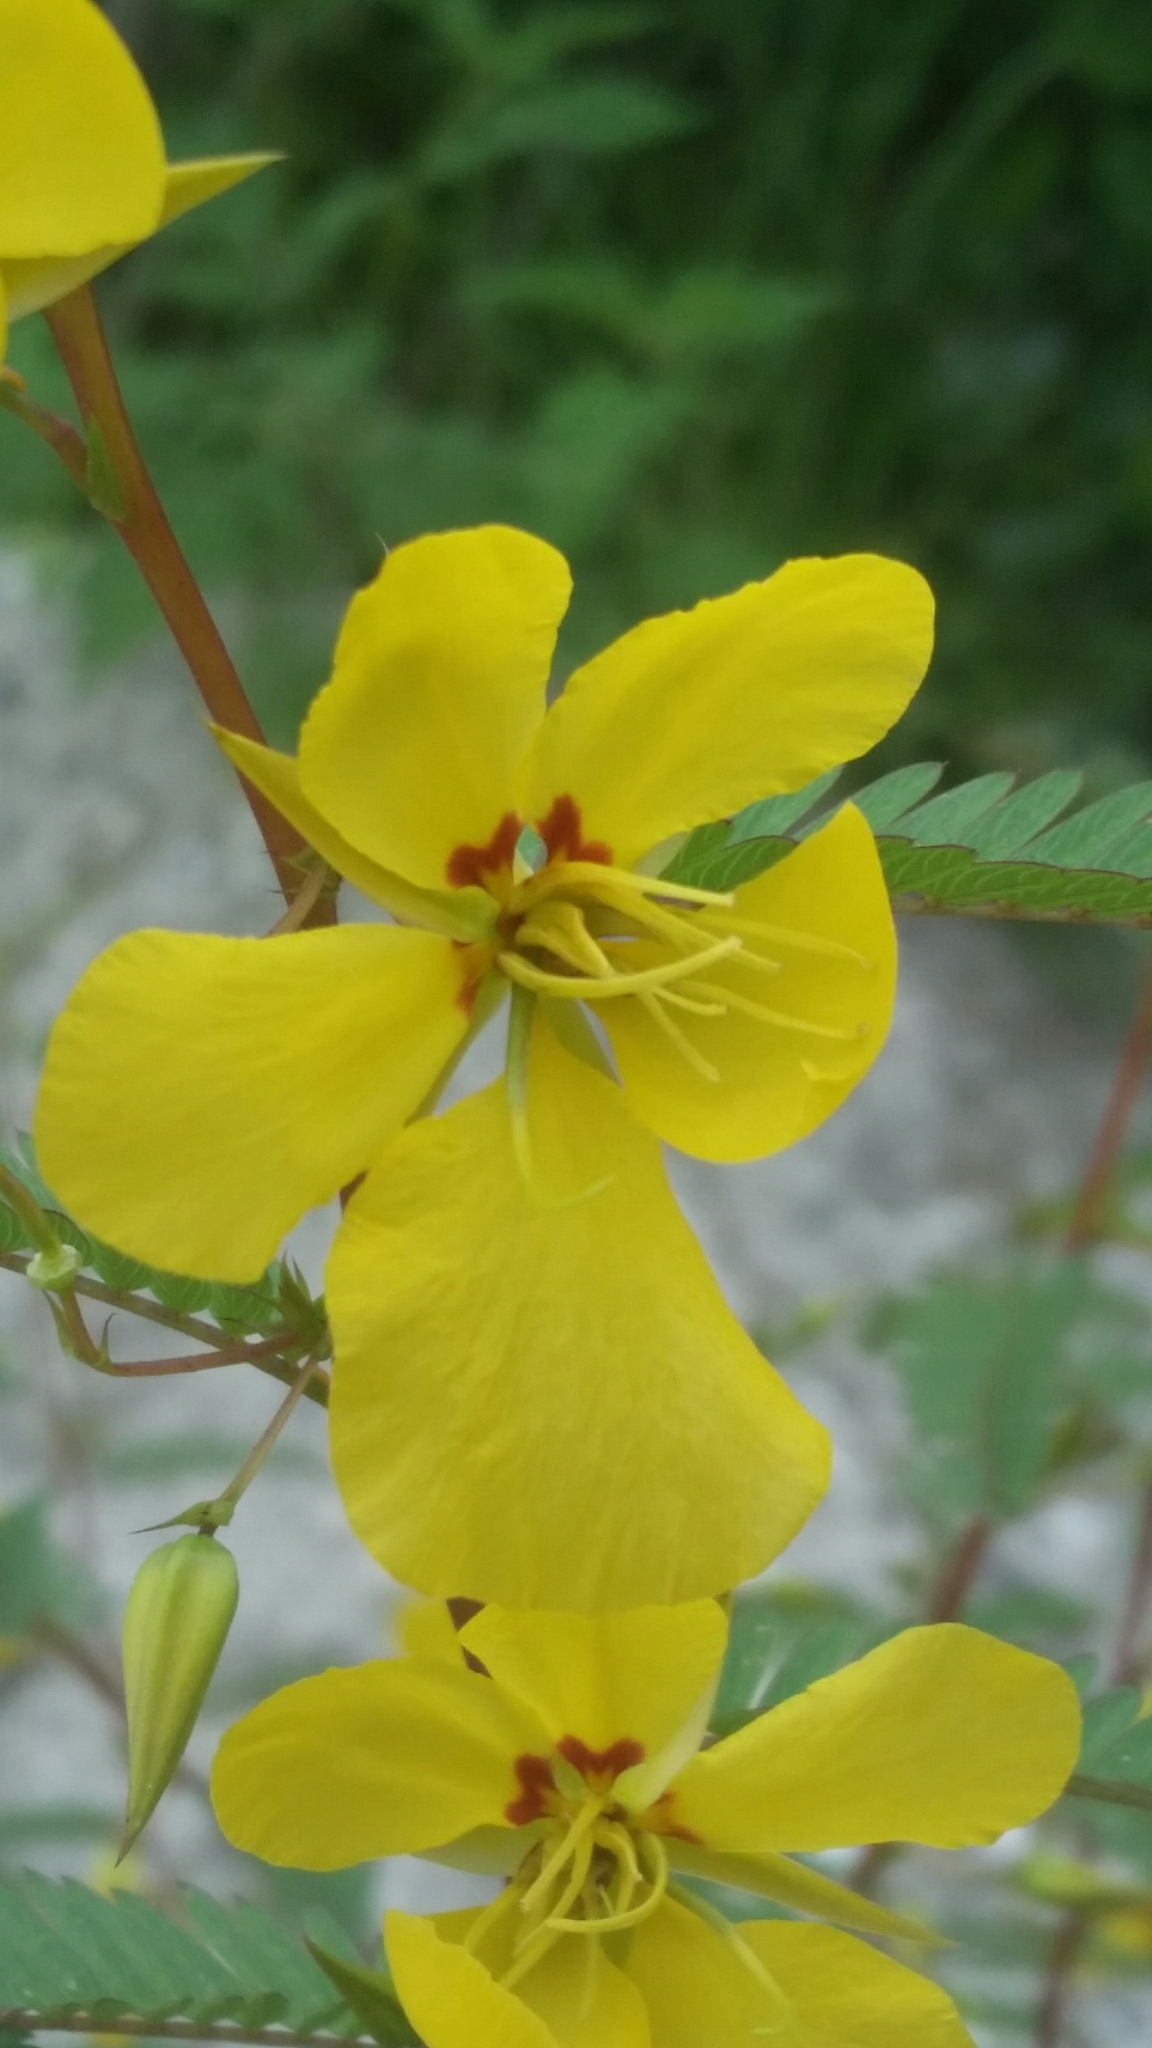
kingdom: Plantae
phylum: Tracheophyta
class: Magnoliopsida
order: Fabales
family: Fabaceae
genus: Chamaecrista
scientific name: Chamaecrista fasciculata
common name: Golden cassia
